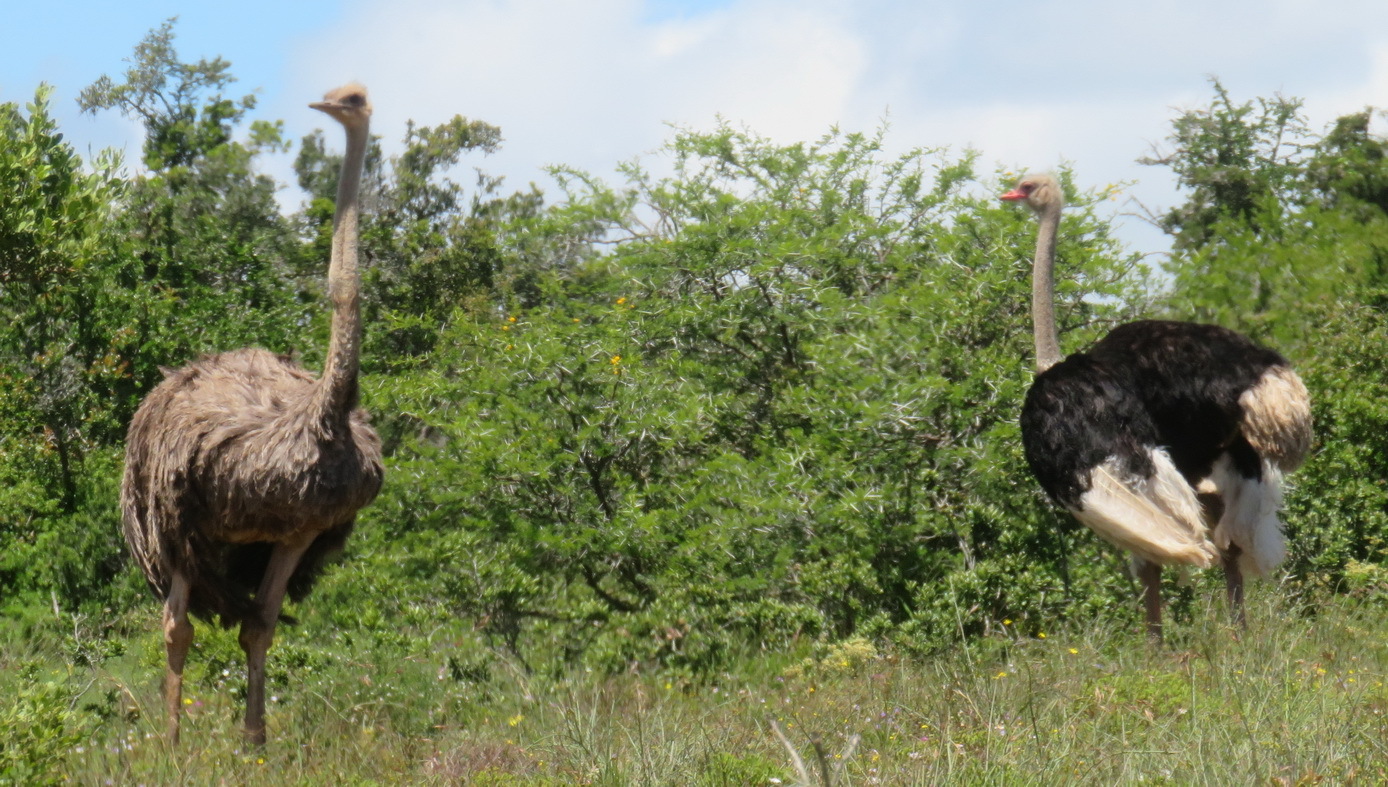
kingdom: Animalia
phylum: Chordata
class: Aves
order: Struthioniformes
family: Struthionidae
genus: Struthio
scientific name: Struthio camelus
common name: Common ostrich
